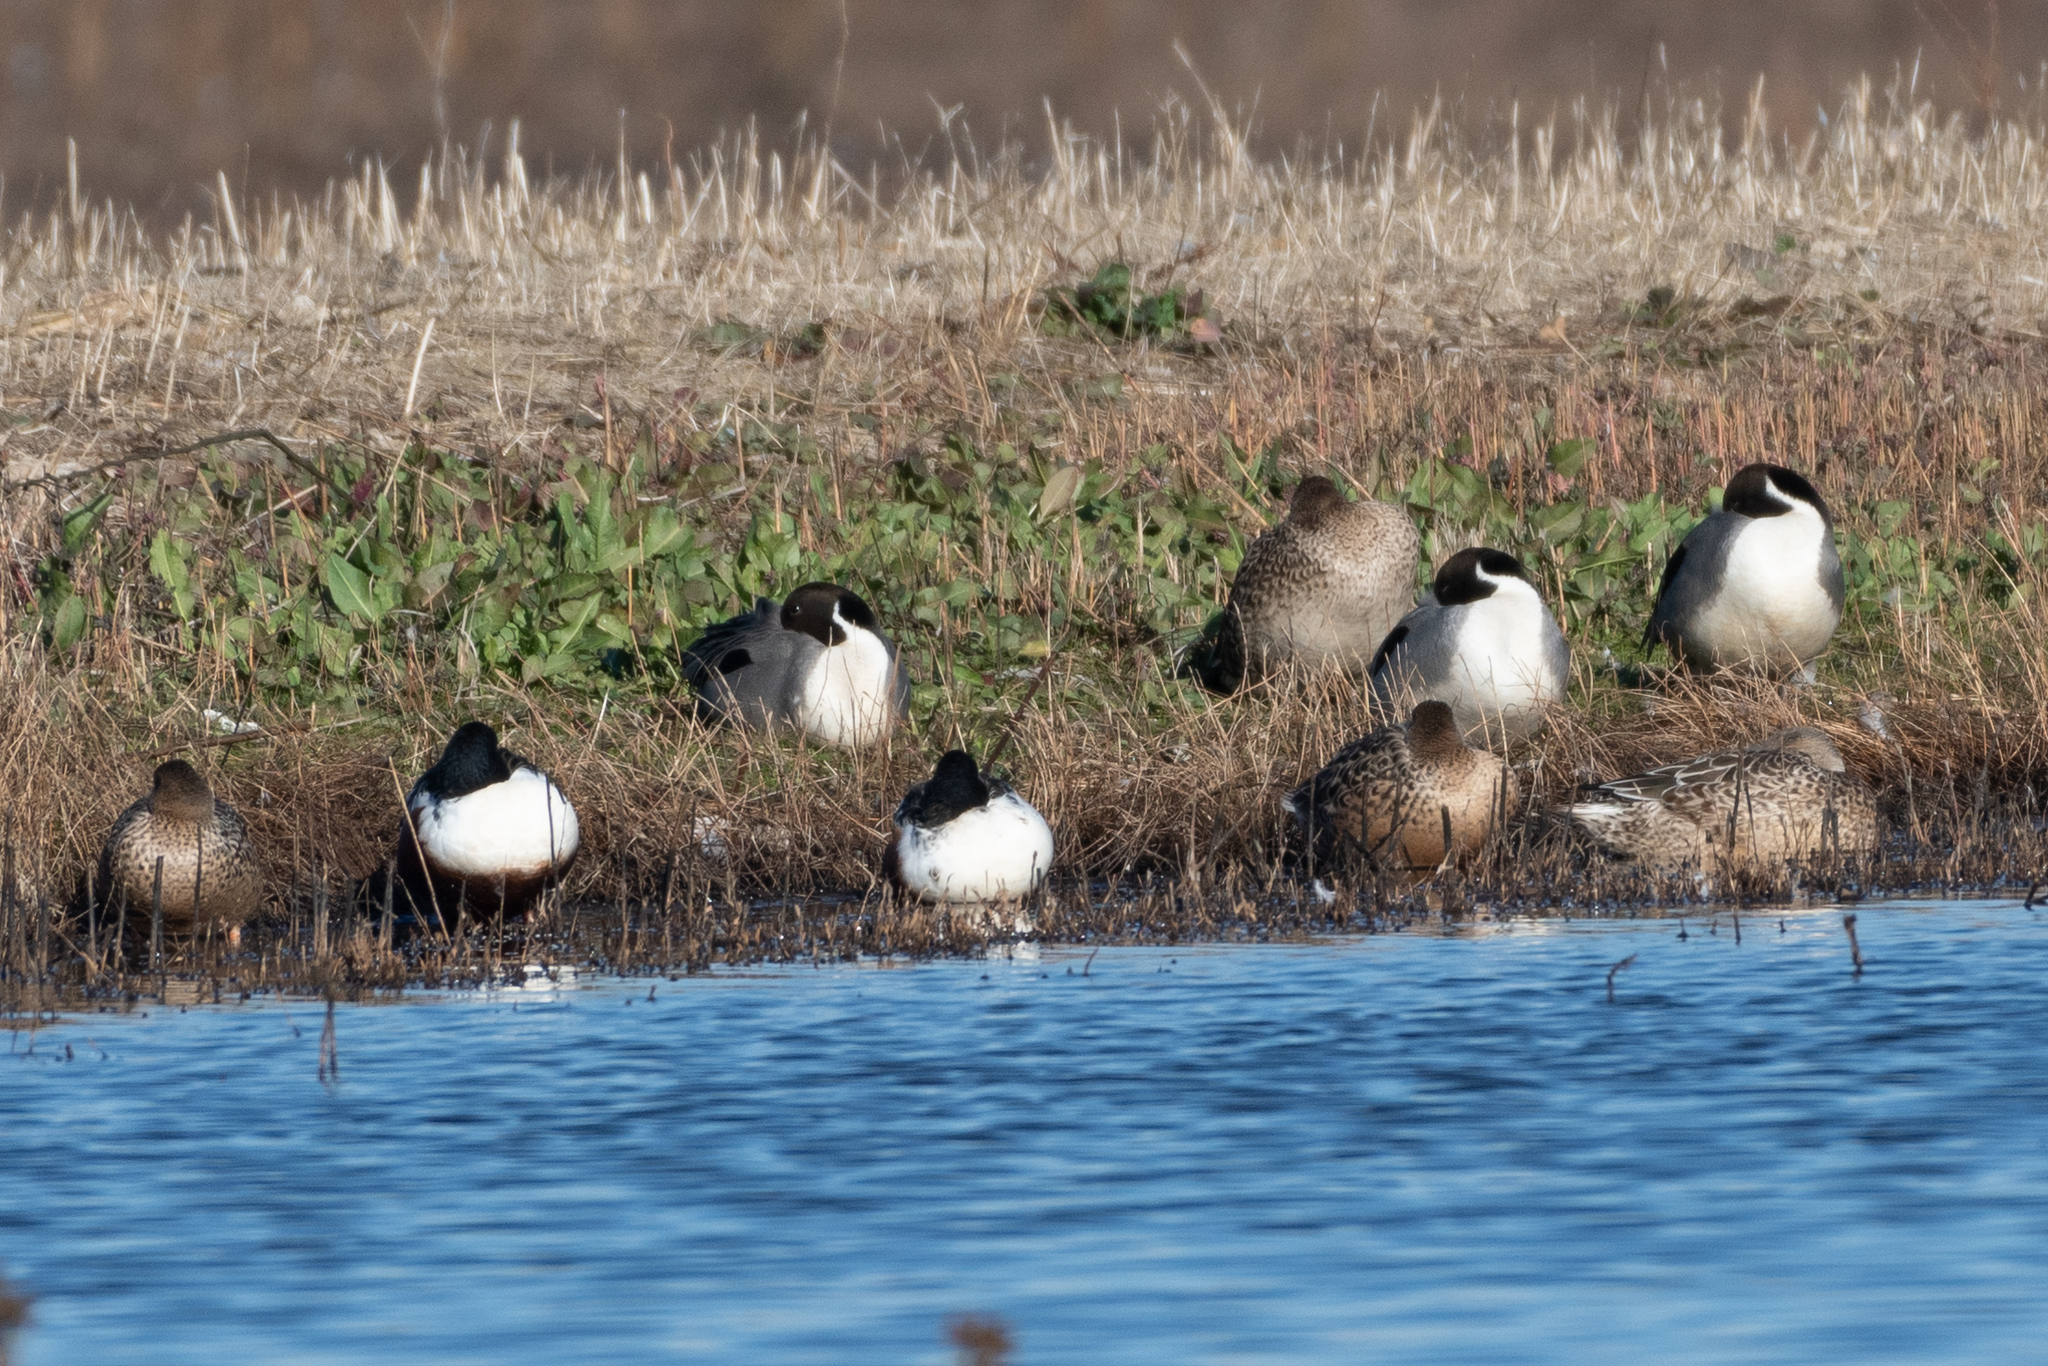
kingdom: Animalia
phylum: Chordata
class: Aves
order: Anseriformes
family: Anatidae
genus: Anas
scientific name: Anas acuta
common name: Northern pintail
